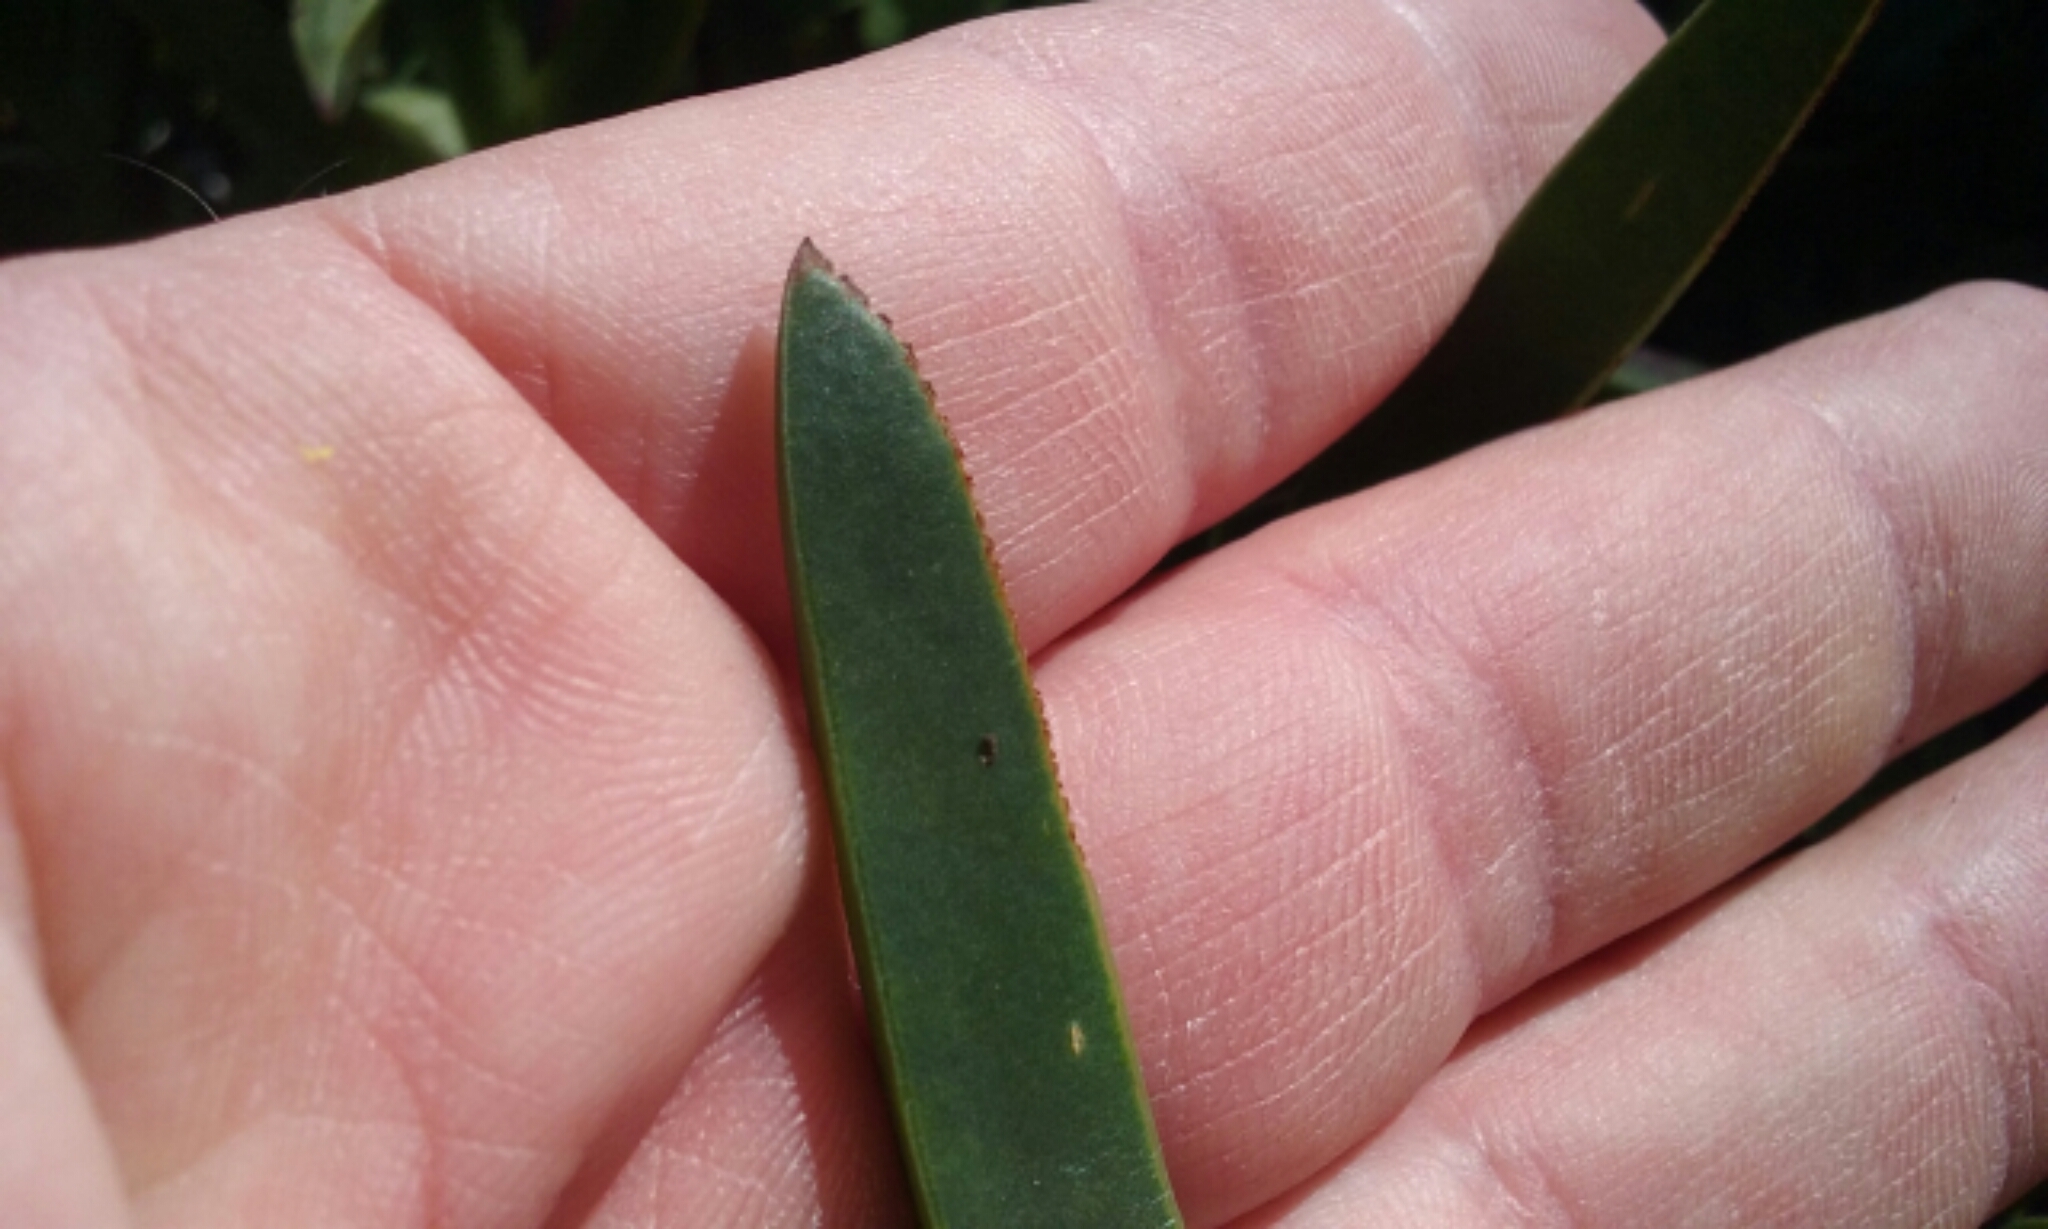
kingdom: Plantae
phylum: Tracheophyta
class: Magnoliopsida
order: Caryophyllales
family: Aizoaceae
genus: Carpobrotus
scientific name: Carpobrotus edulis
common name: Hottentot-fig
